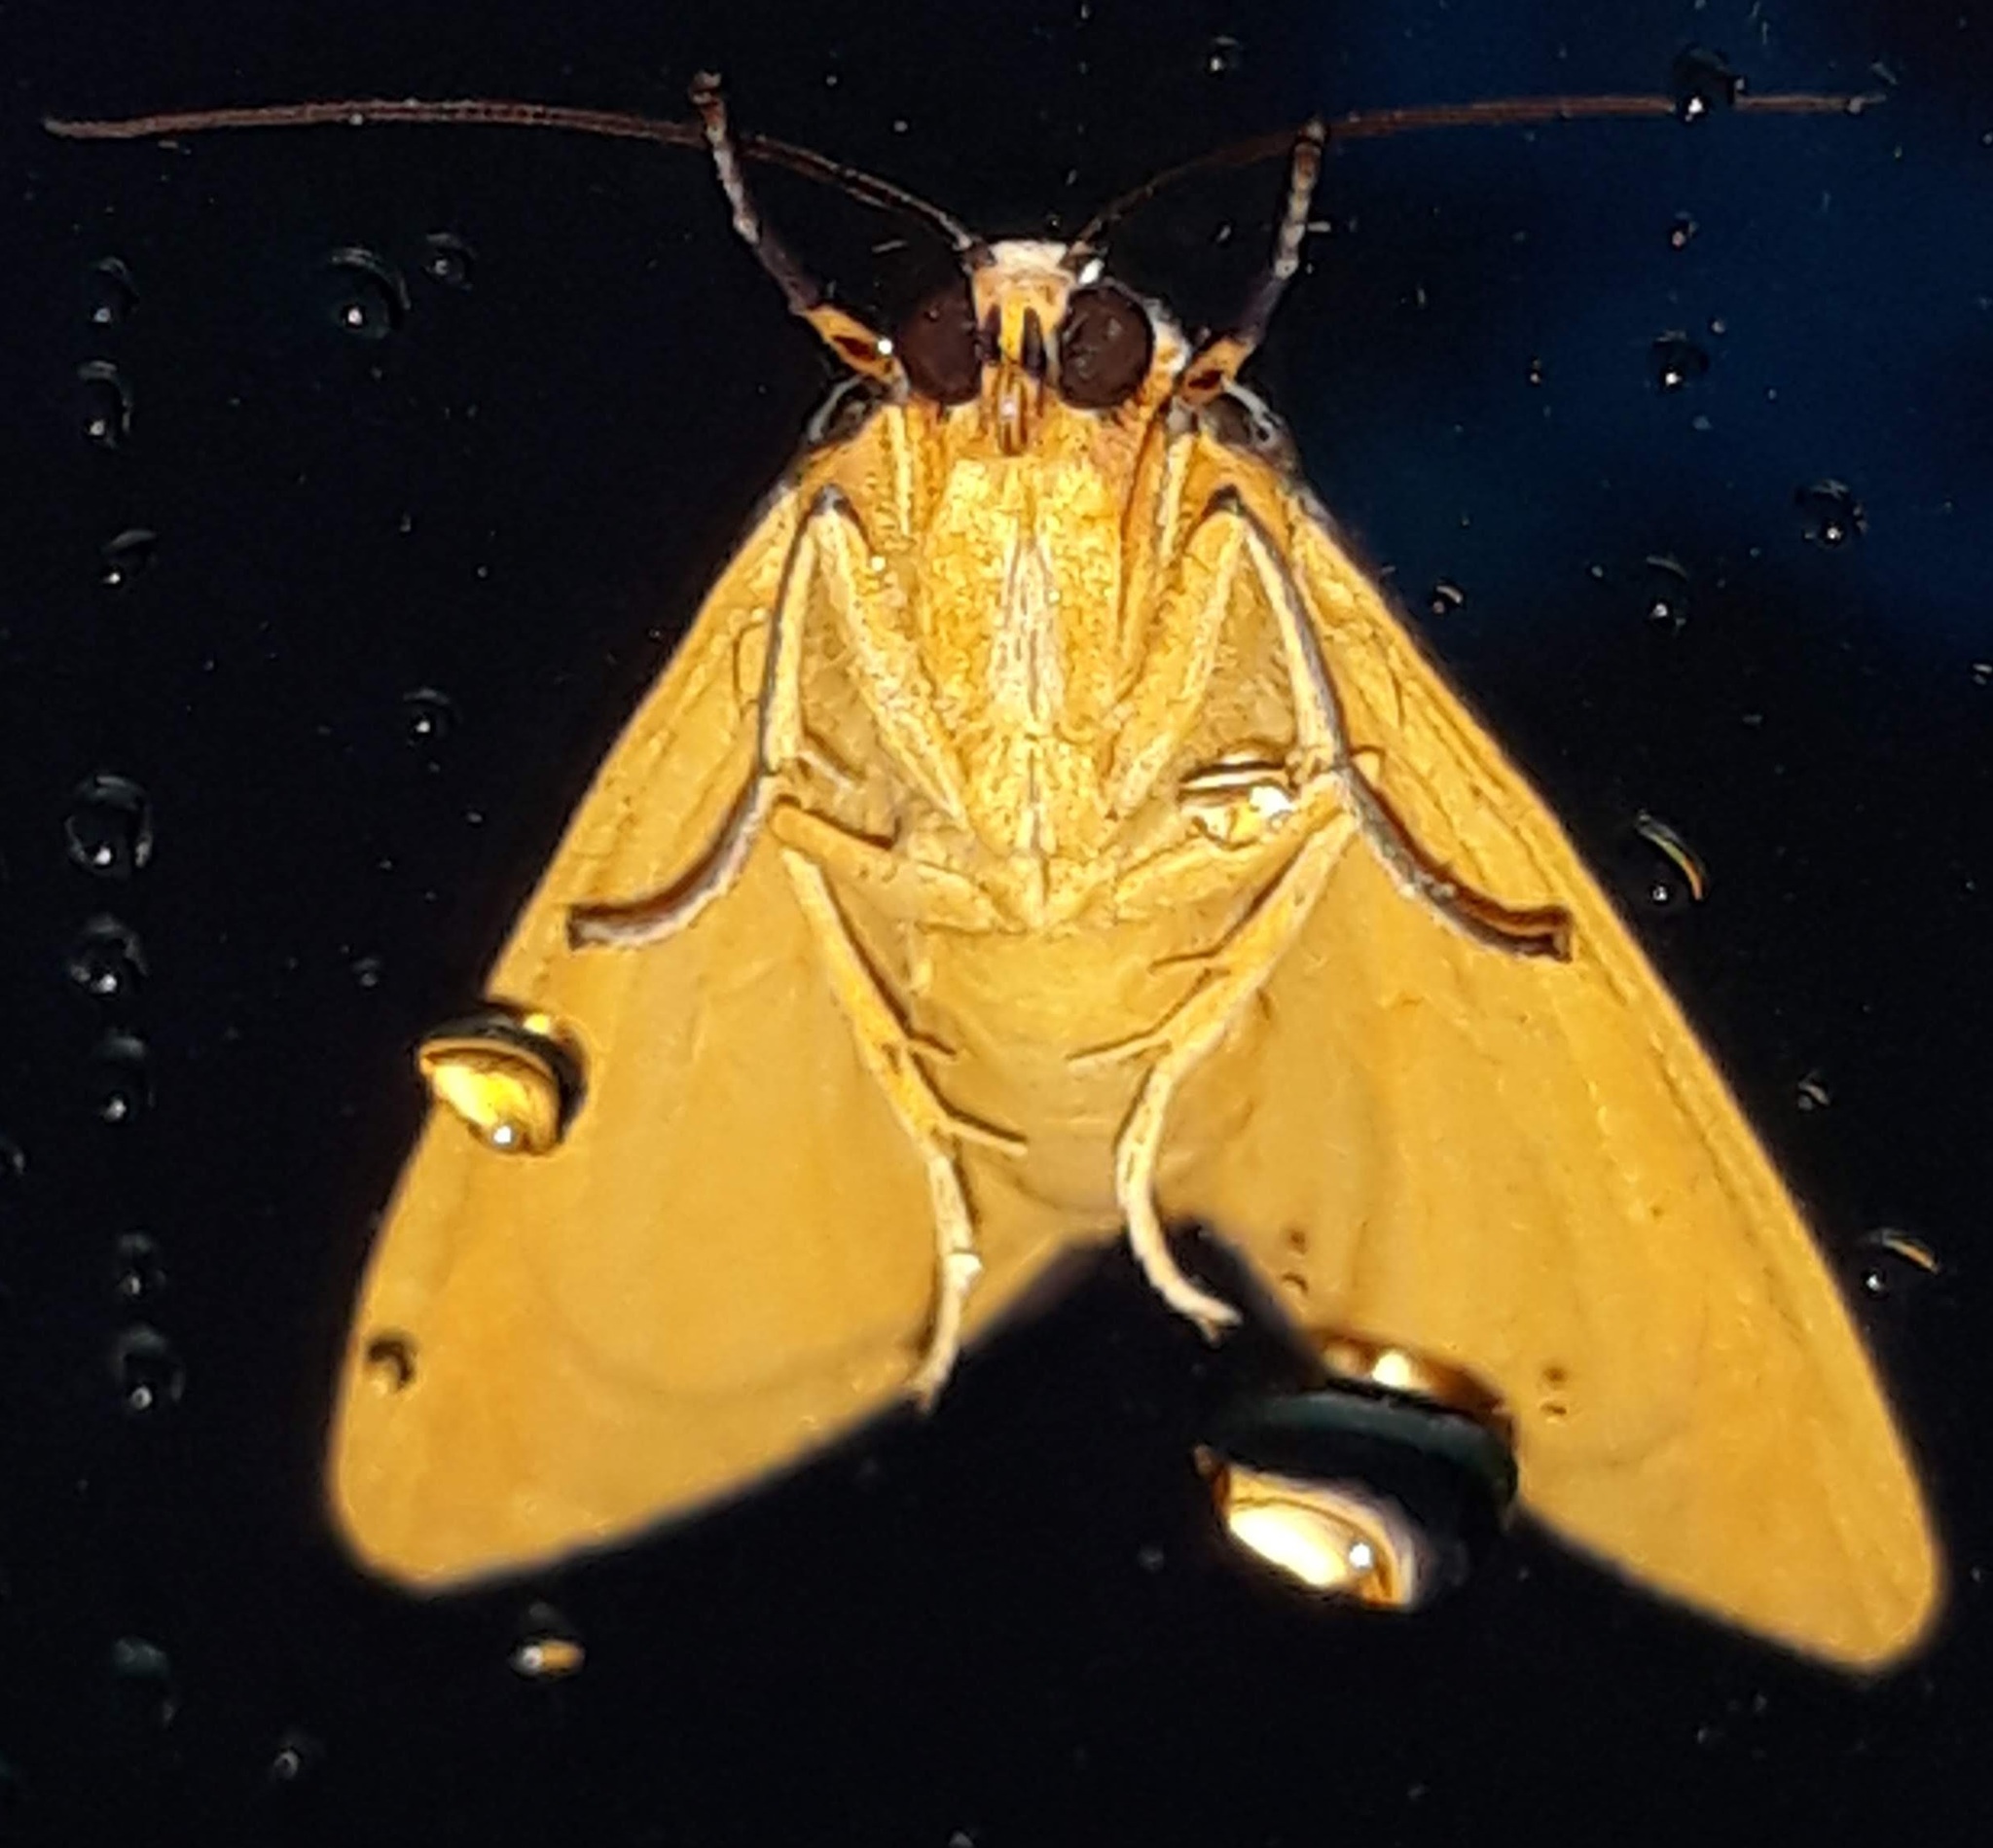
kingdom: Animalia
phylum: Arthropoda
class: Insecta
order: Lepidoptera
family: Erebidae
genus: Haploa
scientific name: Haploa clymene
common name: Clymene moth
